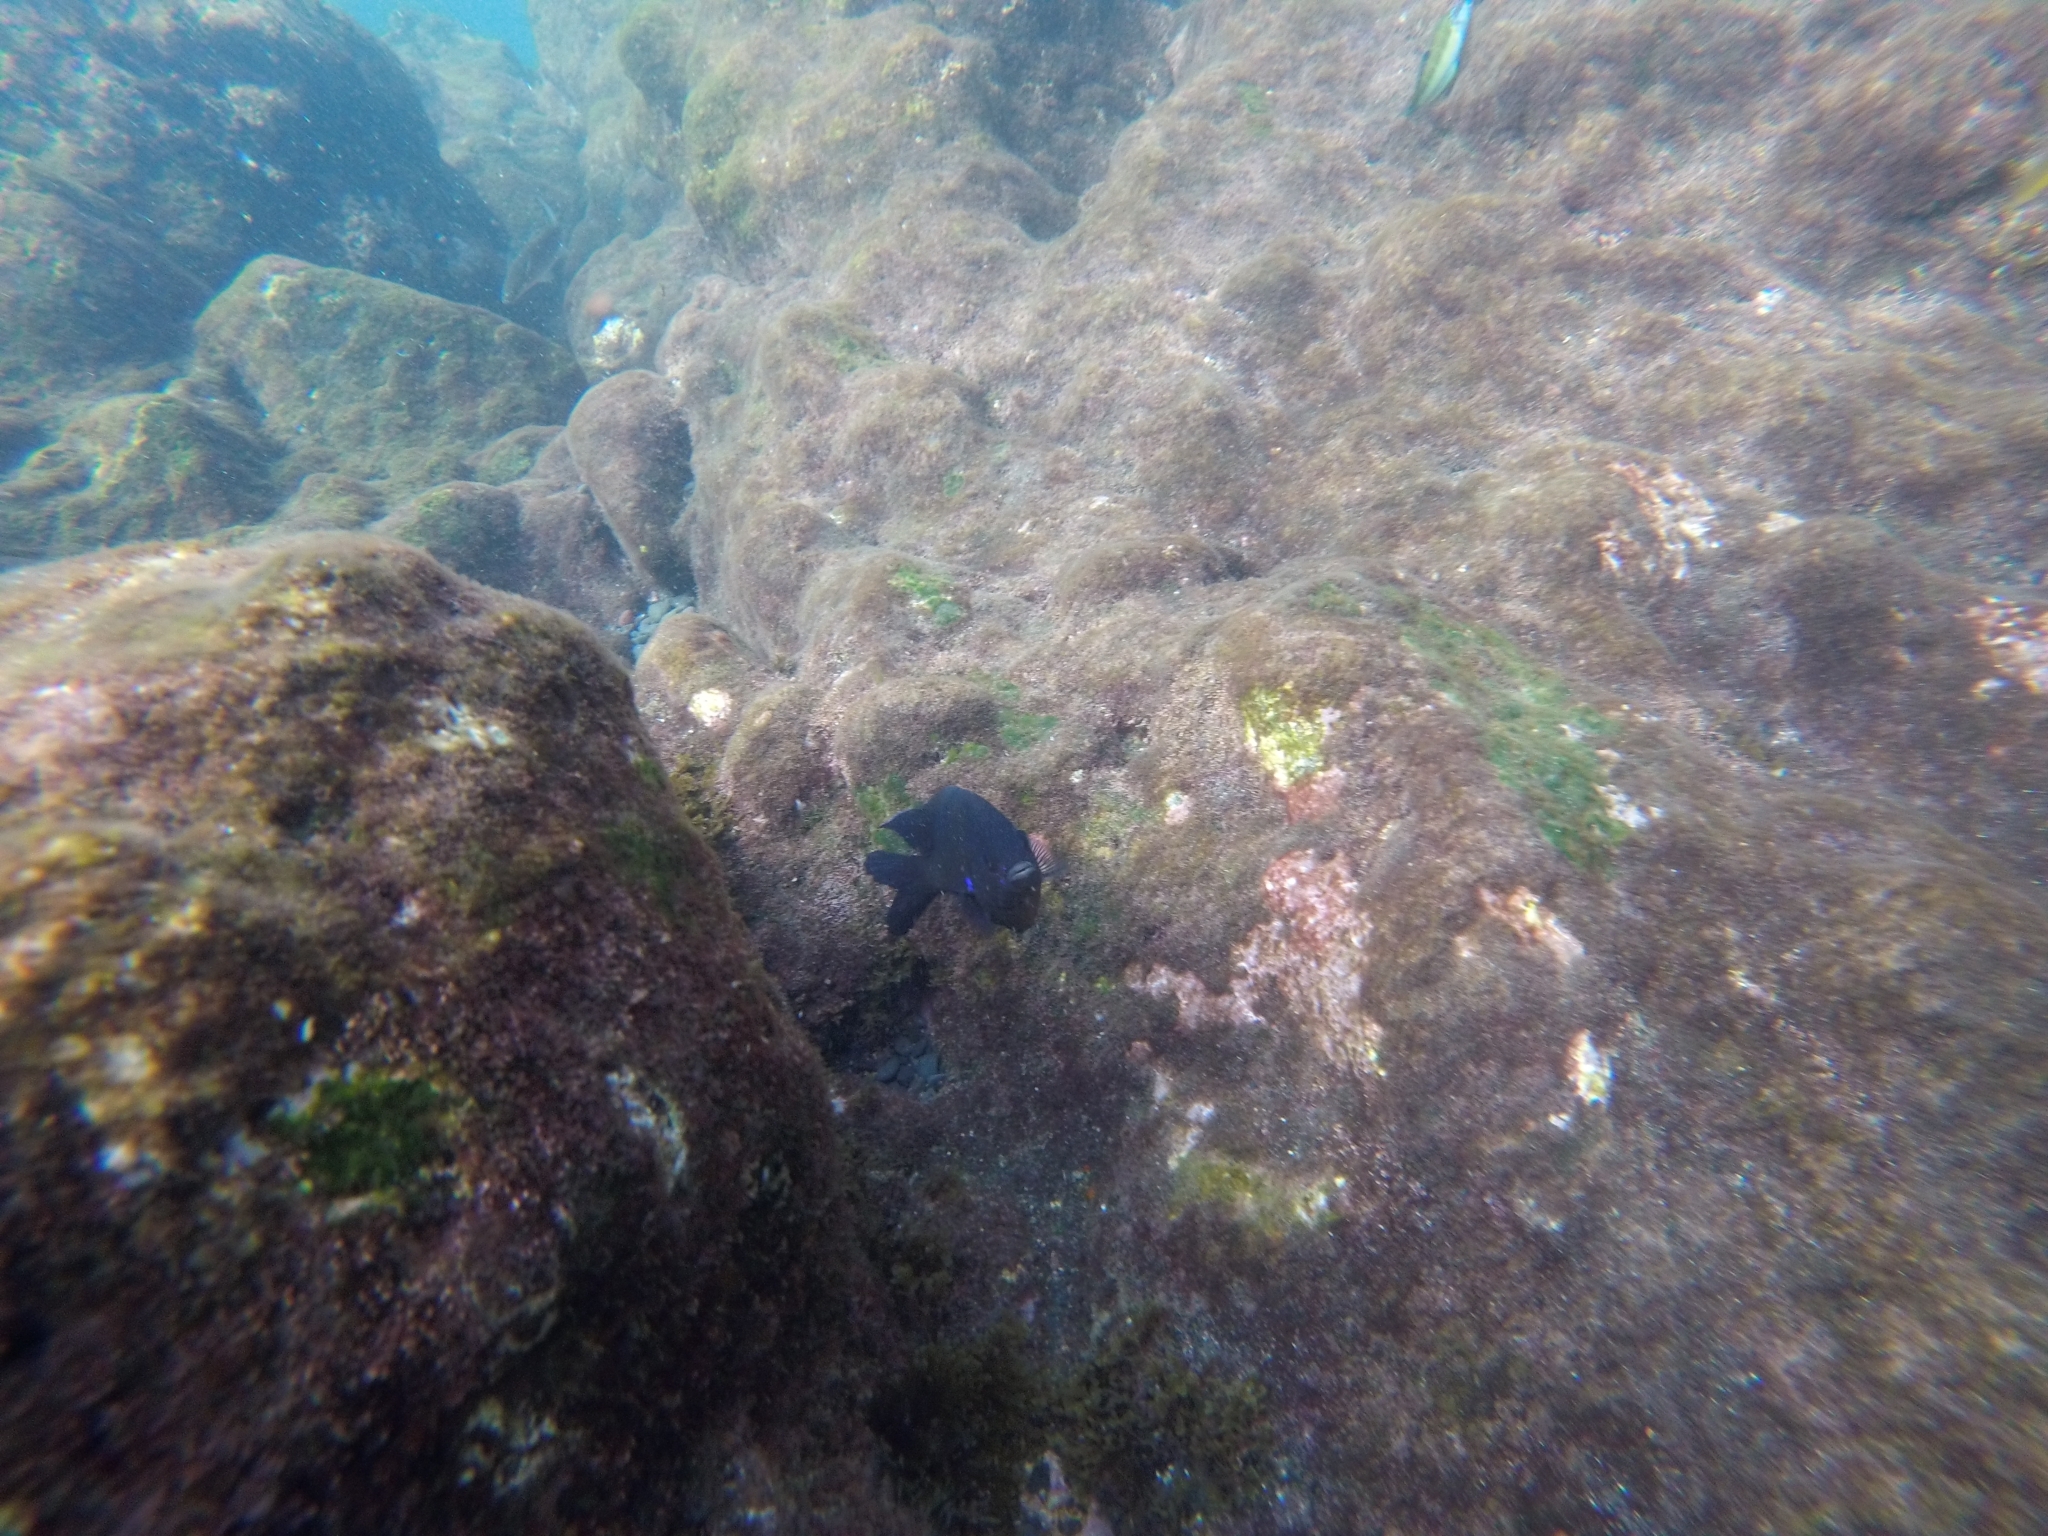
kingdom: Animalia
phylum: Chordata
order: Perciformes
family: Pomacentridae
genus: Similiparma
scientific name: Similiparma lurida
